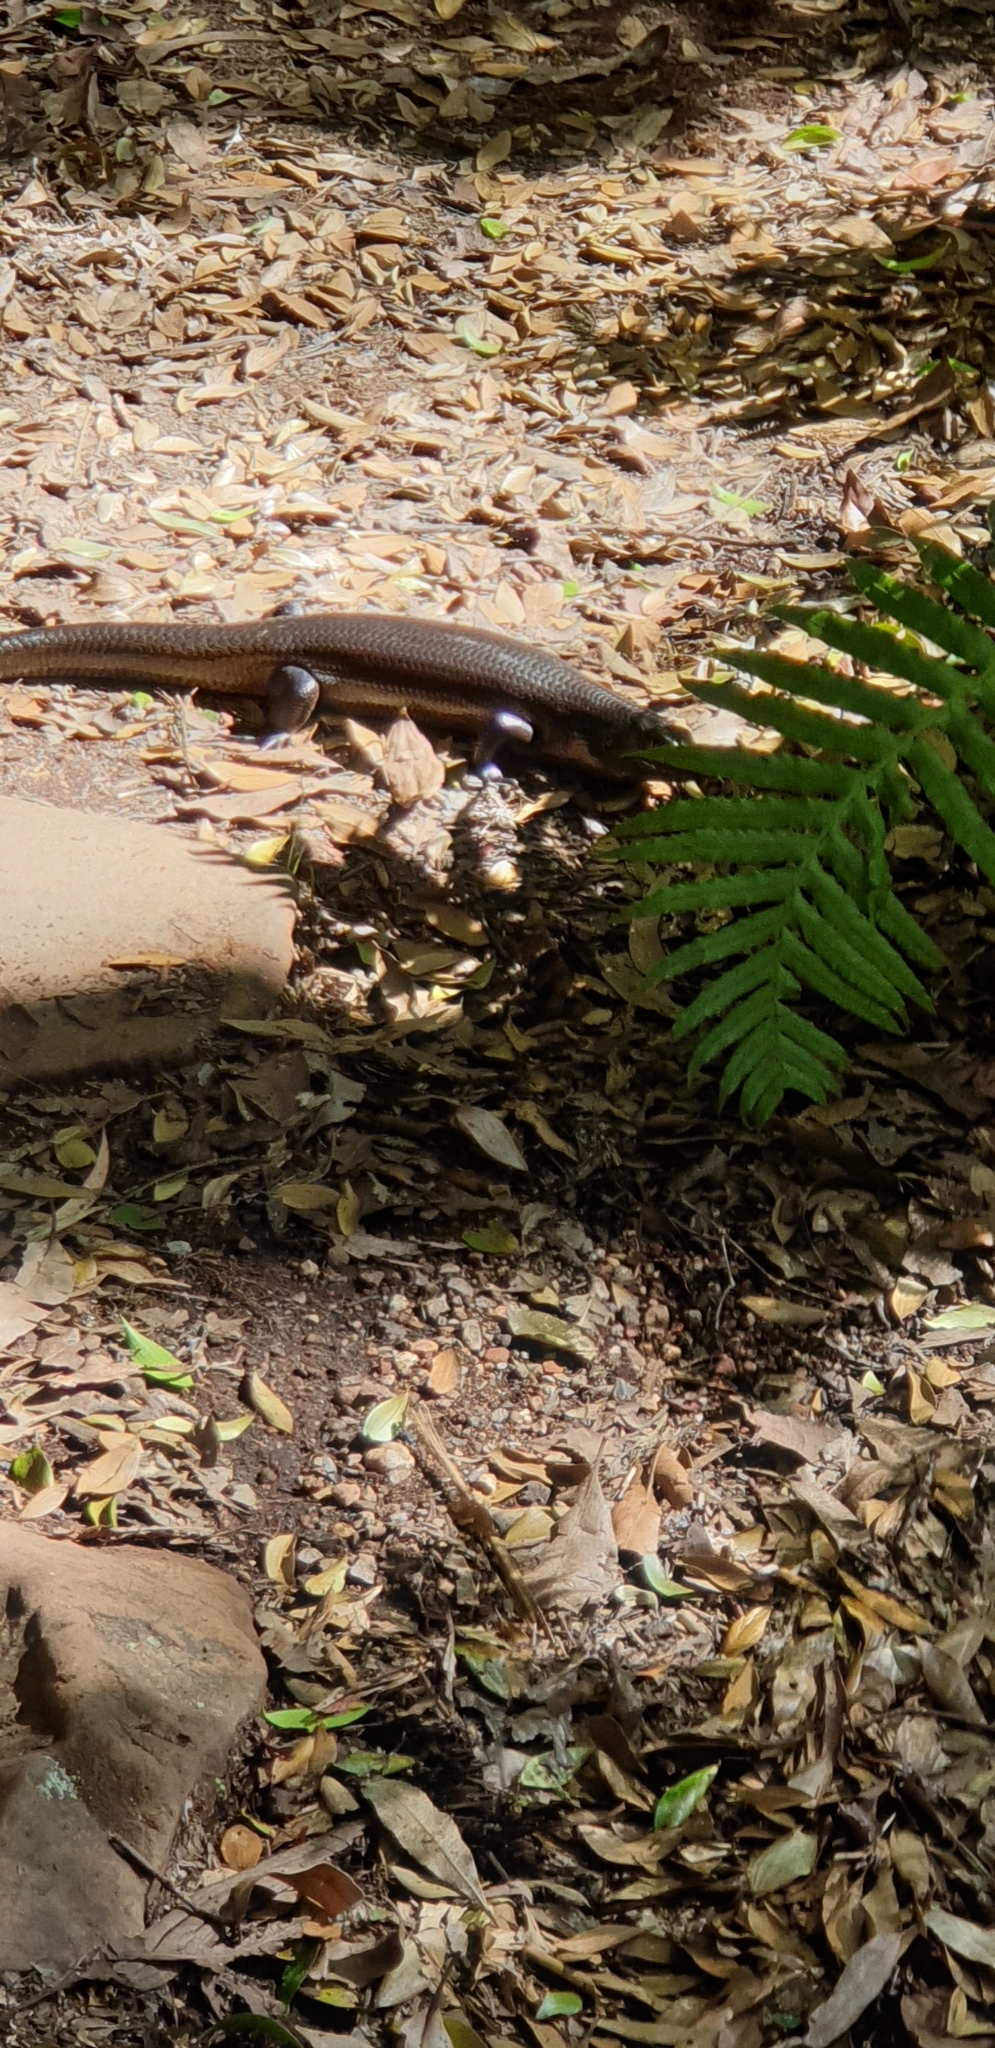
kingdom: Animalia
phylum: Chordata
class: Squamata
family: Scincidae
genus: Bellatorias
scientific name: Bellatorias major
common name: Land mullet
